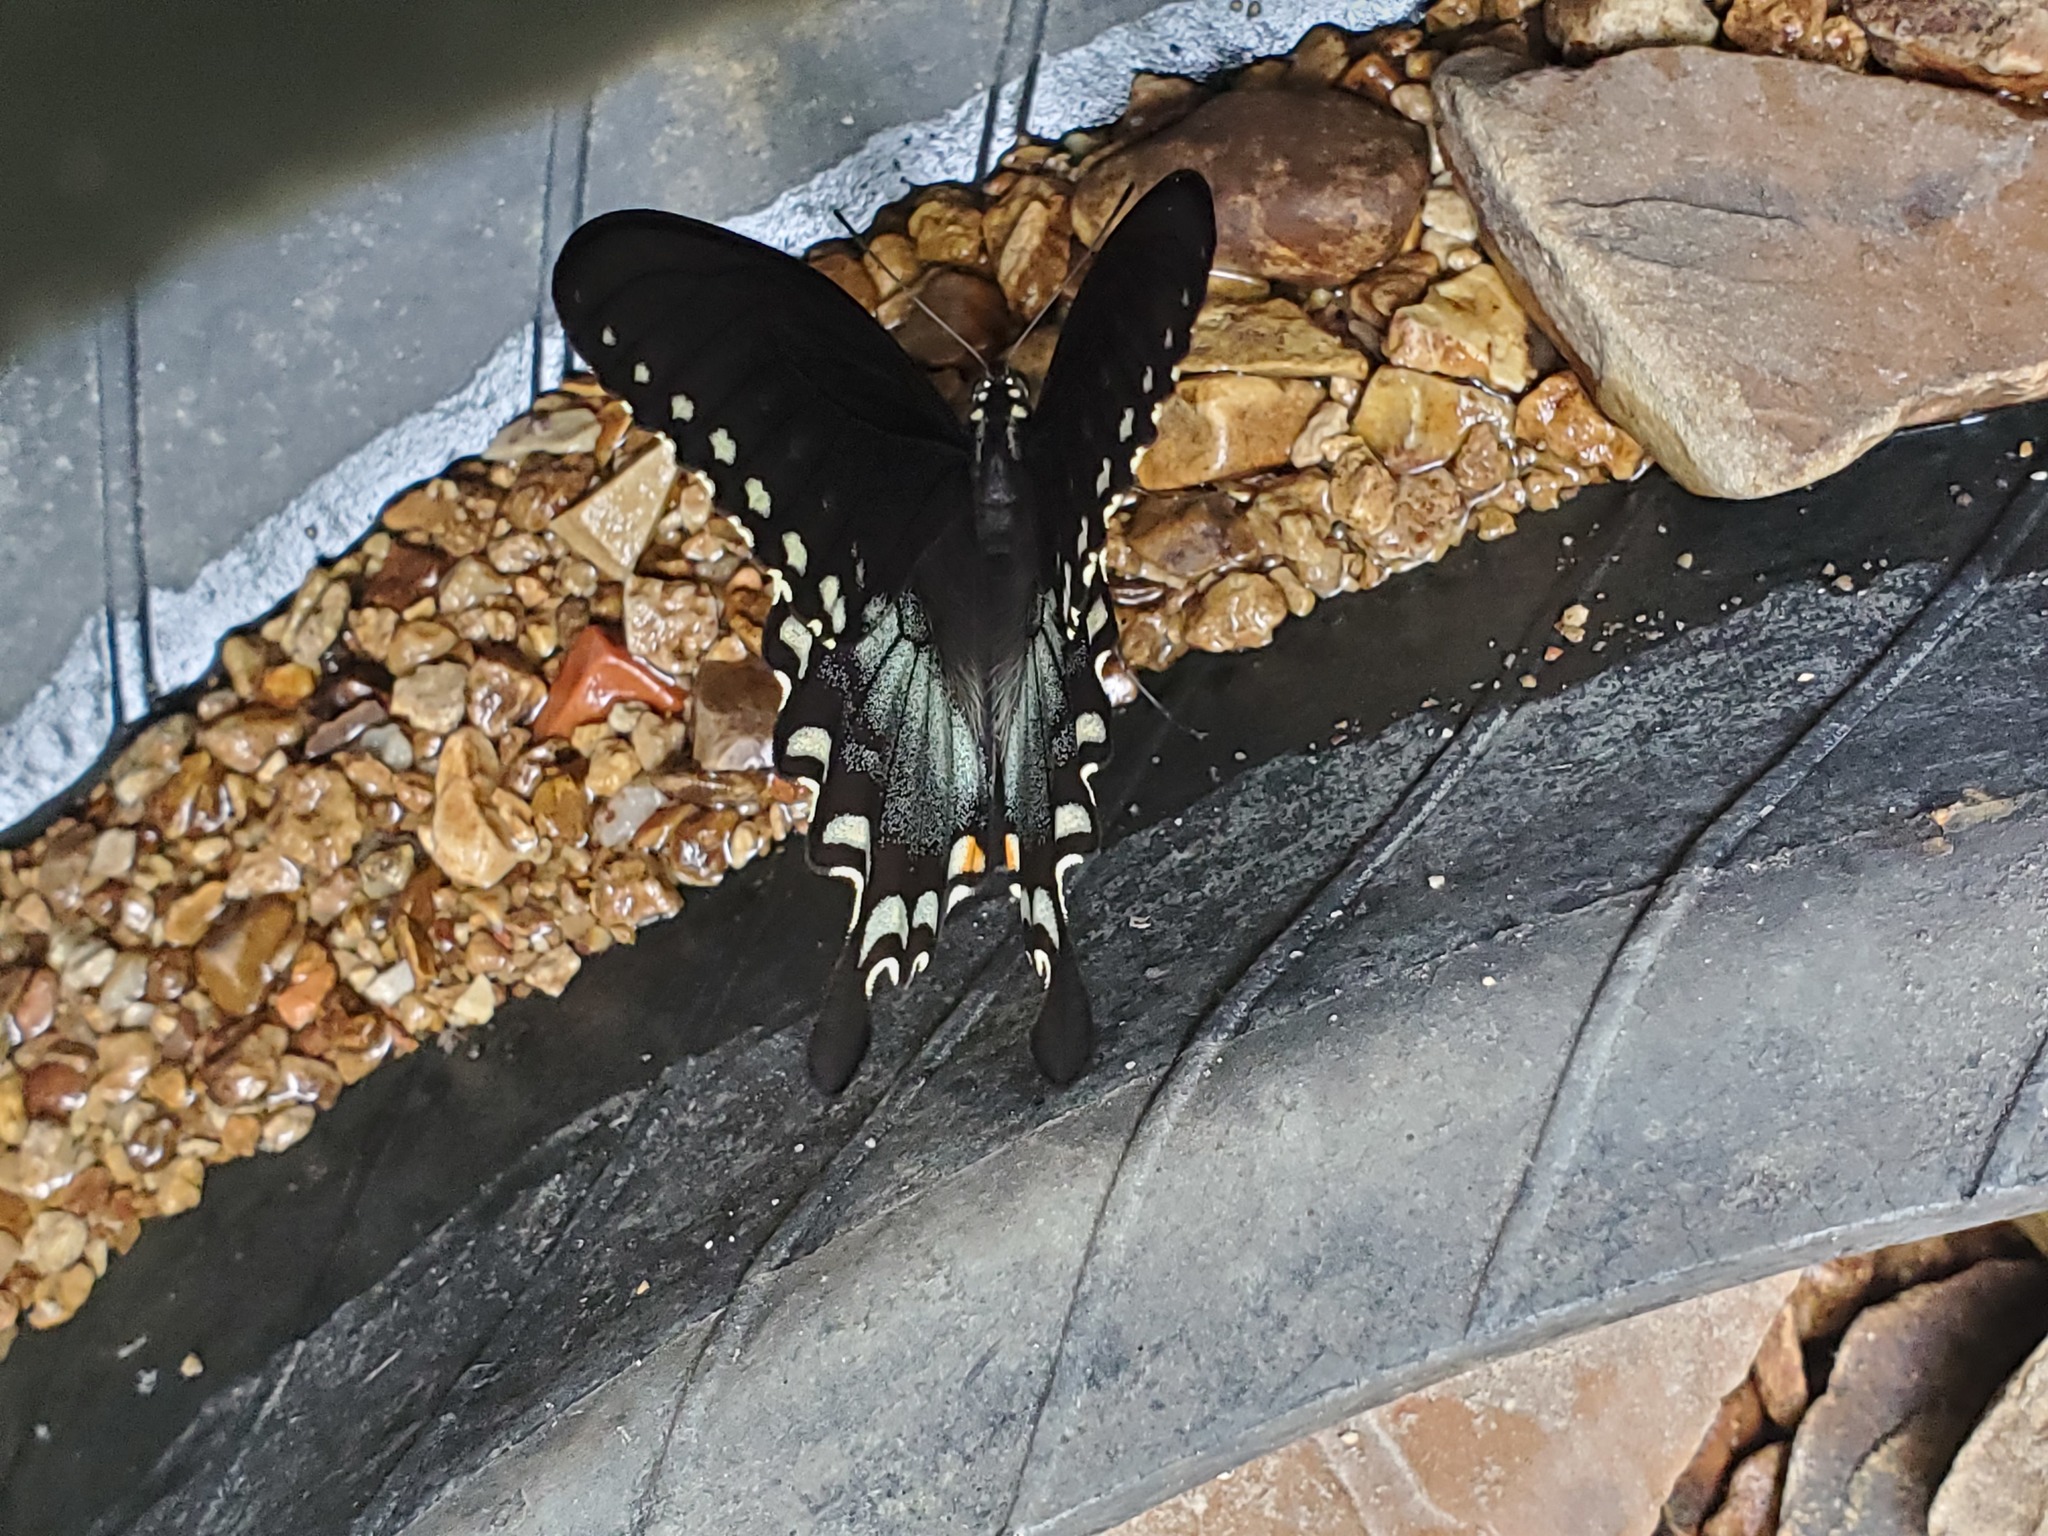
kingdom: Animalia
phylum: Arthropoda
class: Insecta
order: Lepidoptera
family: Papilionidae
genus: Papilio
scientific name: Papilio troilus
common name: Spicebush swallowtail
